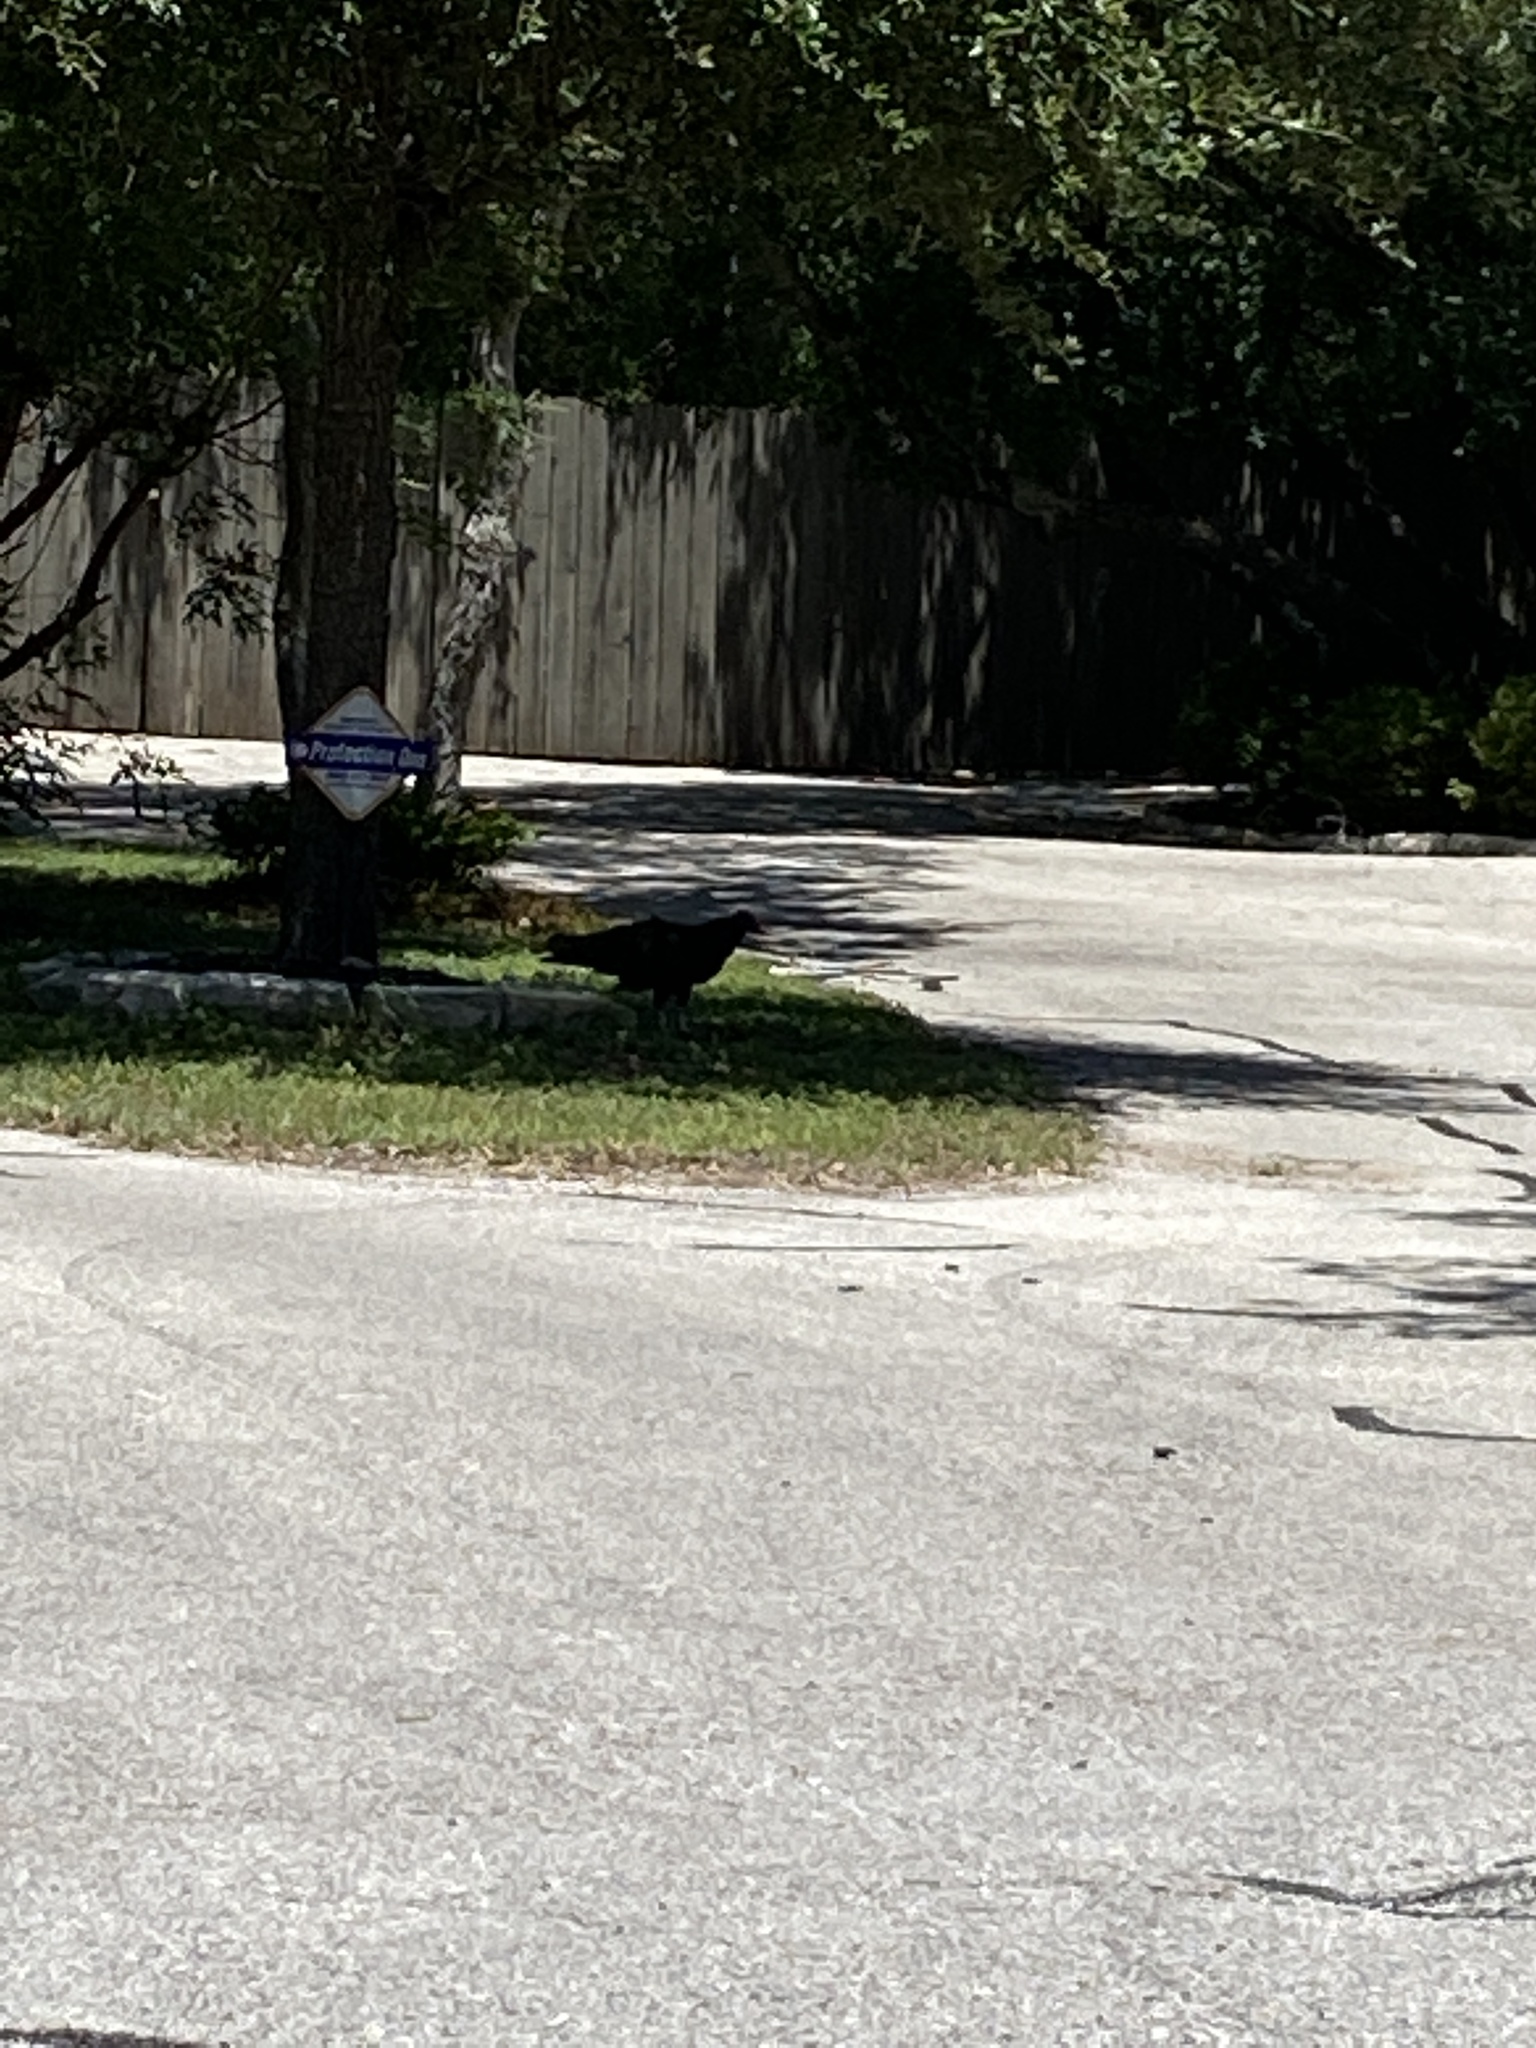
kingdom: Animalia
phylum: Chordata
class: Aves
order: Accipitriformes
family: Cathartidae
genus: Cathartes
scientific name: Cathartes aura
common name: Turkey vulture
